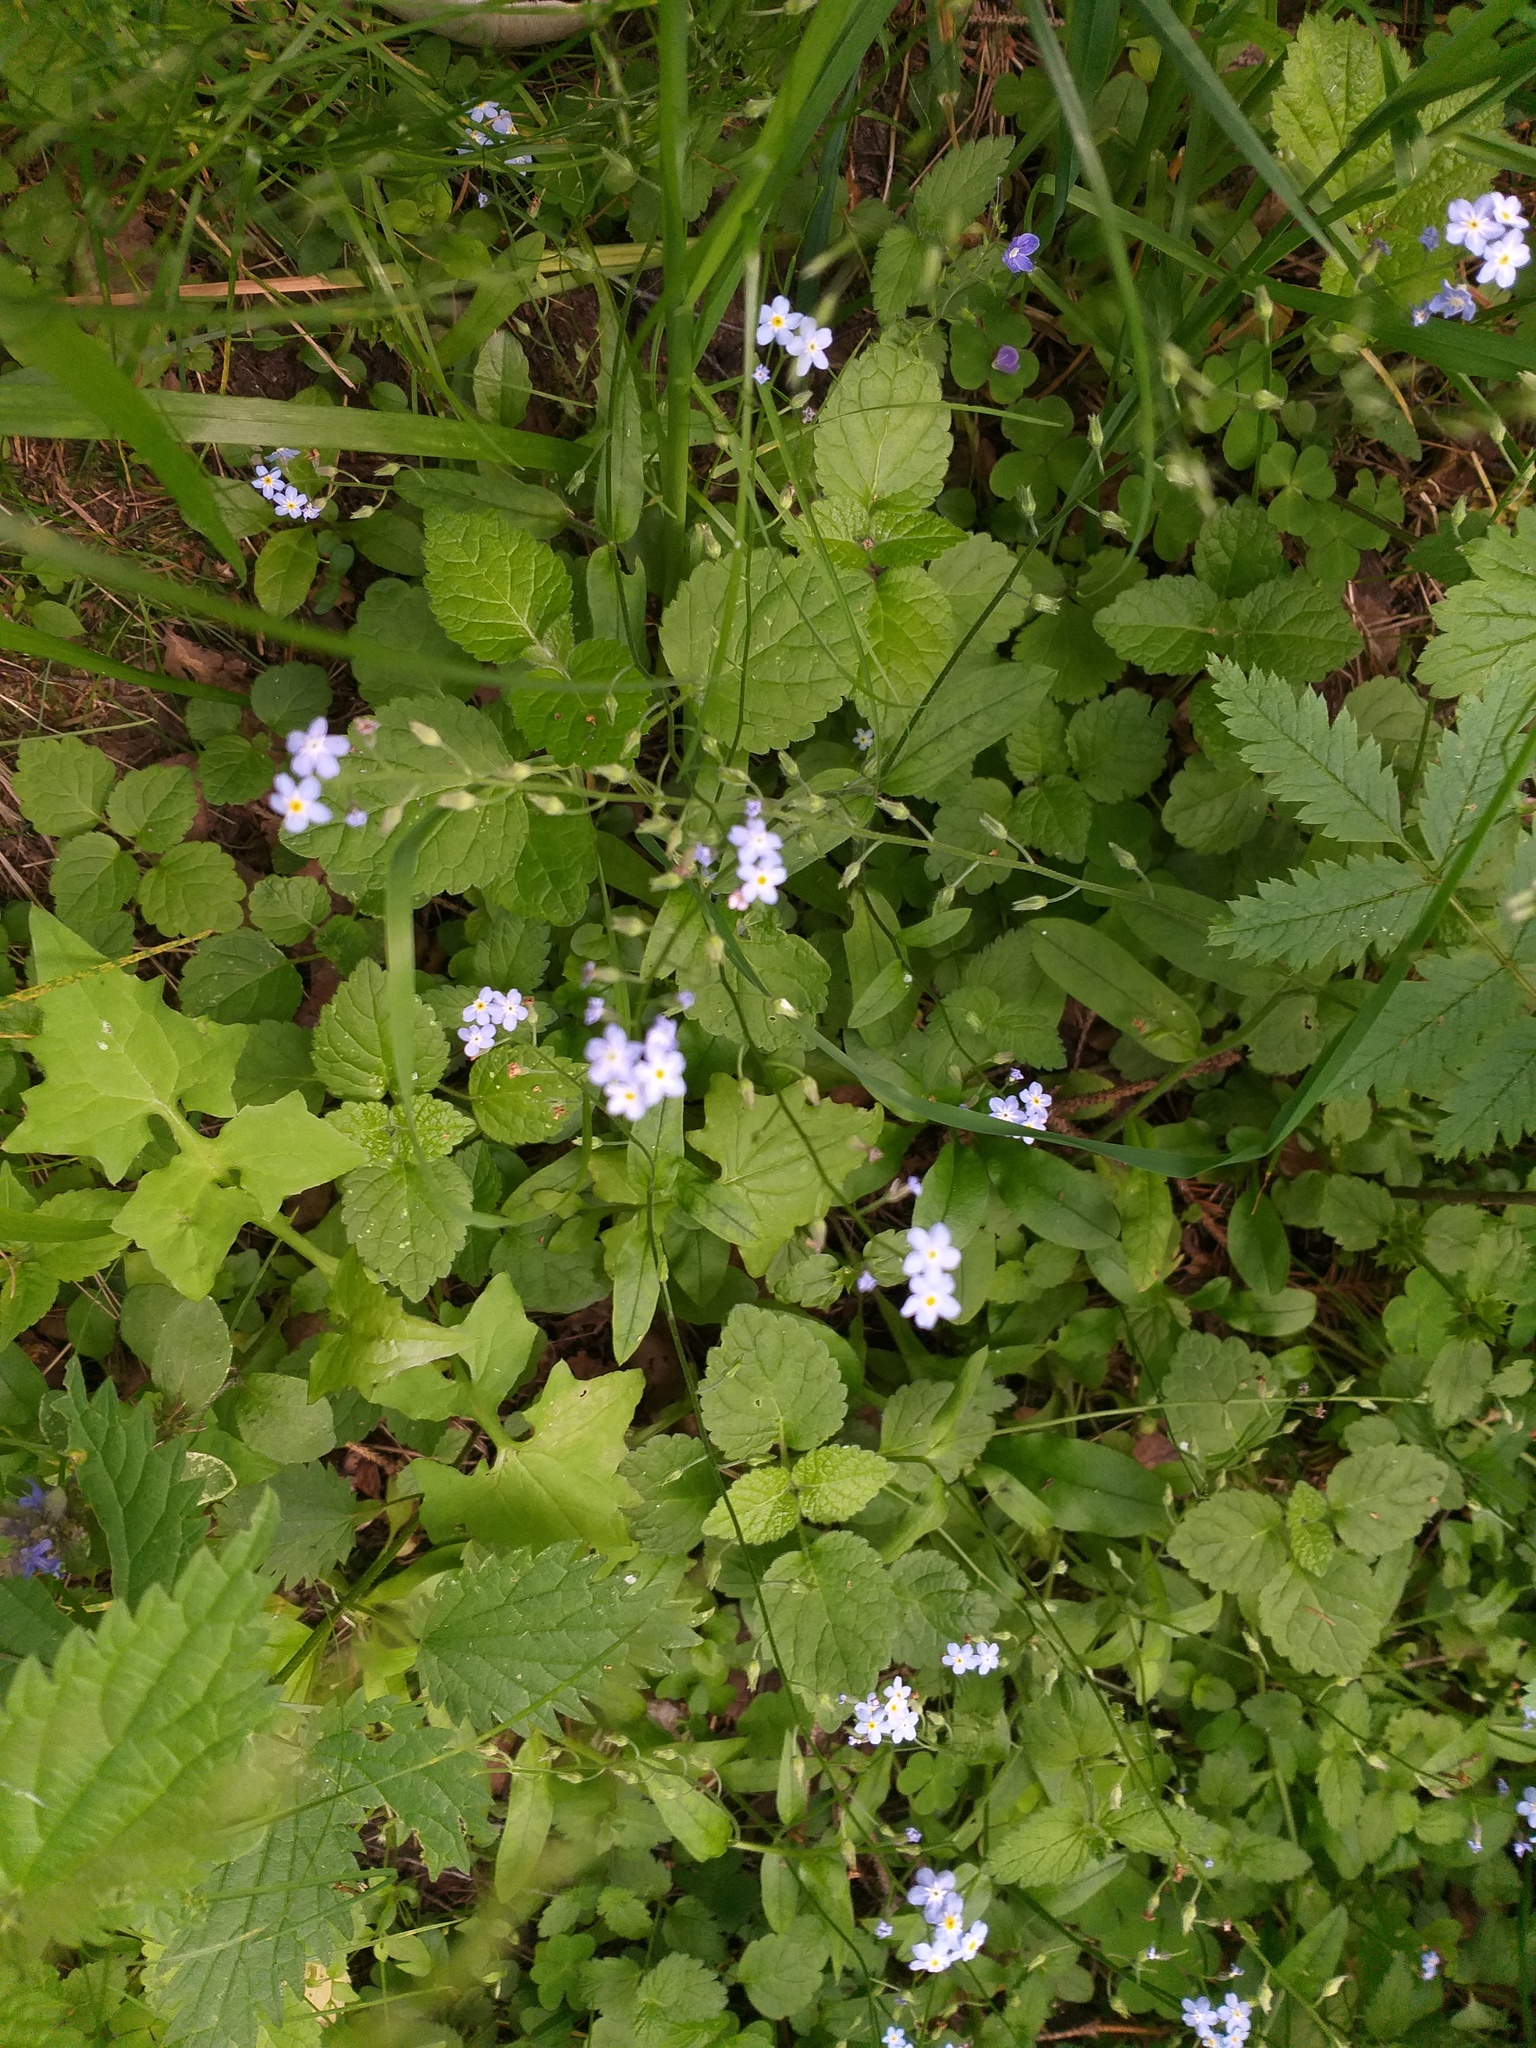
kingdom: Plantae
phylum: Tracheophyta
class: Magnoliopsida
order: Boraginales
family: Boraginaceae
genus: Myosotis
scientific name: Myosotis sylvatica
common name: Wood forget-me-not
